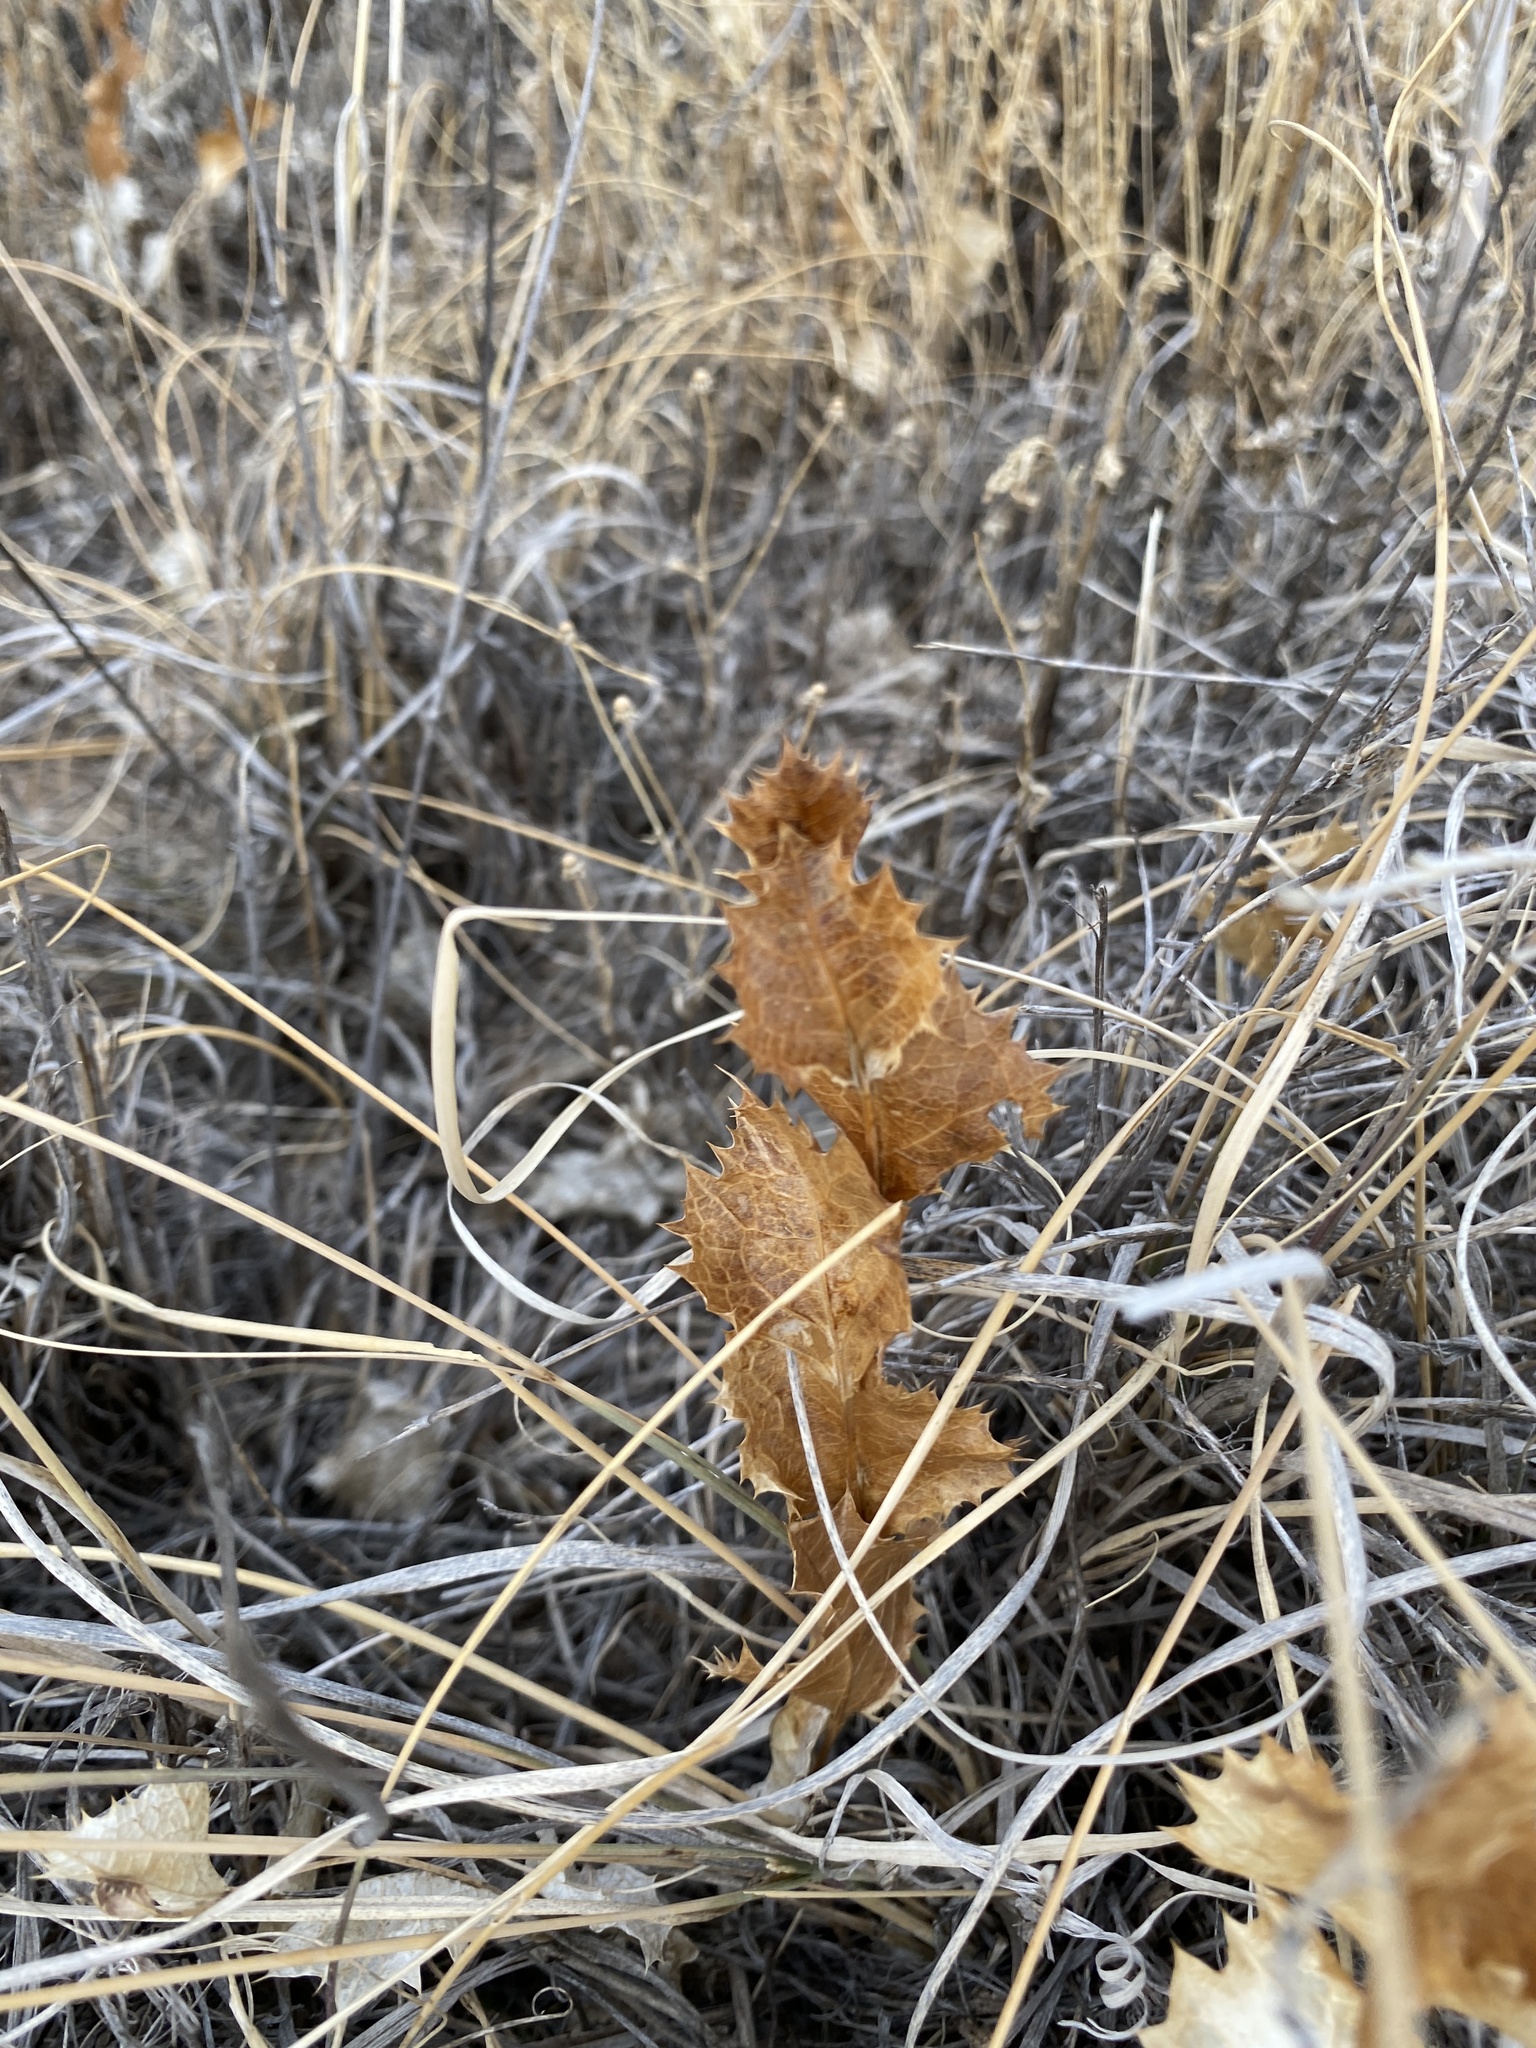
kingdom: Plantae
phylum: Tracheophyta
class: Magnoliopsida
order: Asterales
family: Asteraceae
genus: Acourtia
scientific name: Acourtia nana
